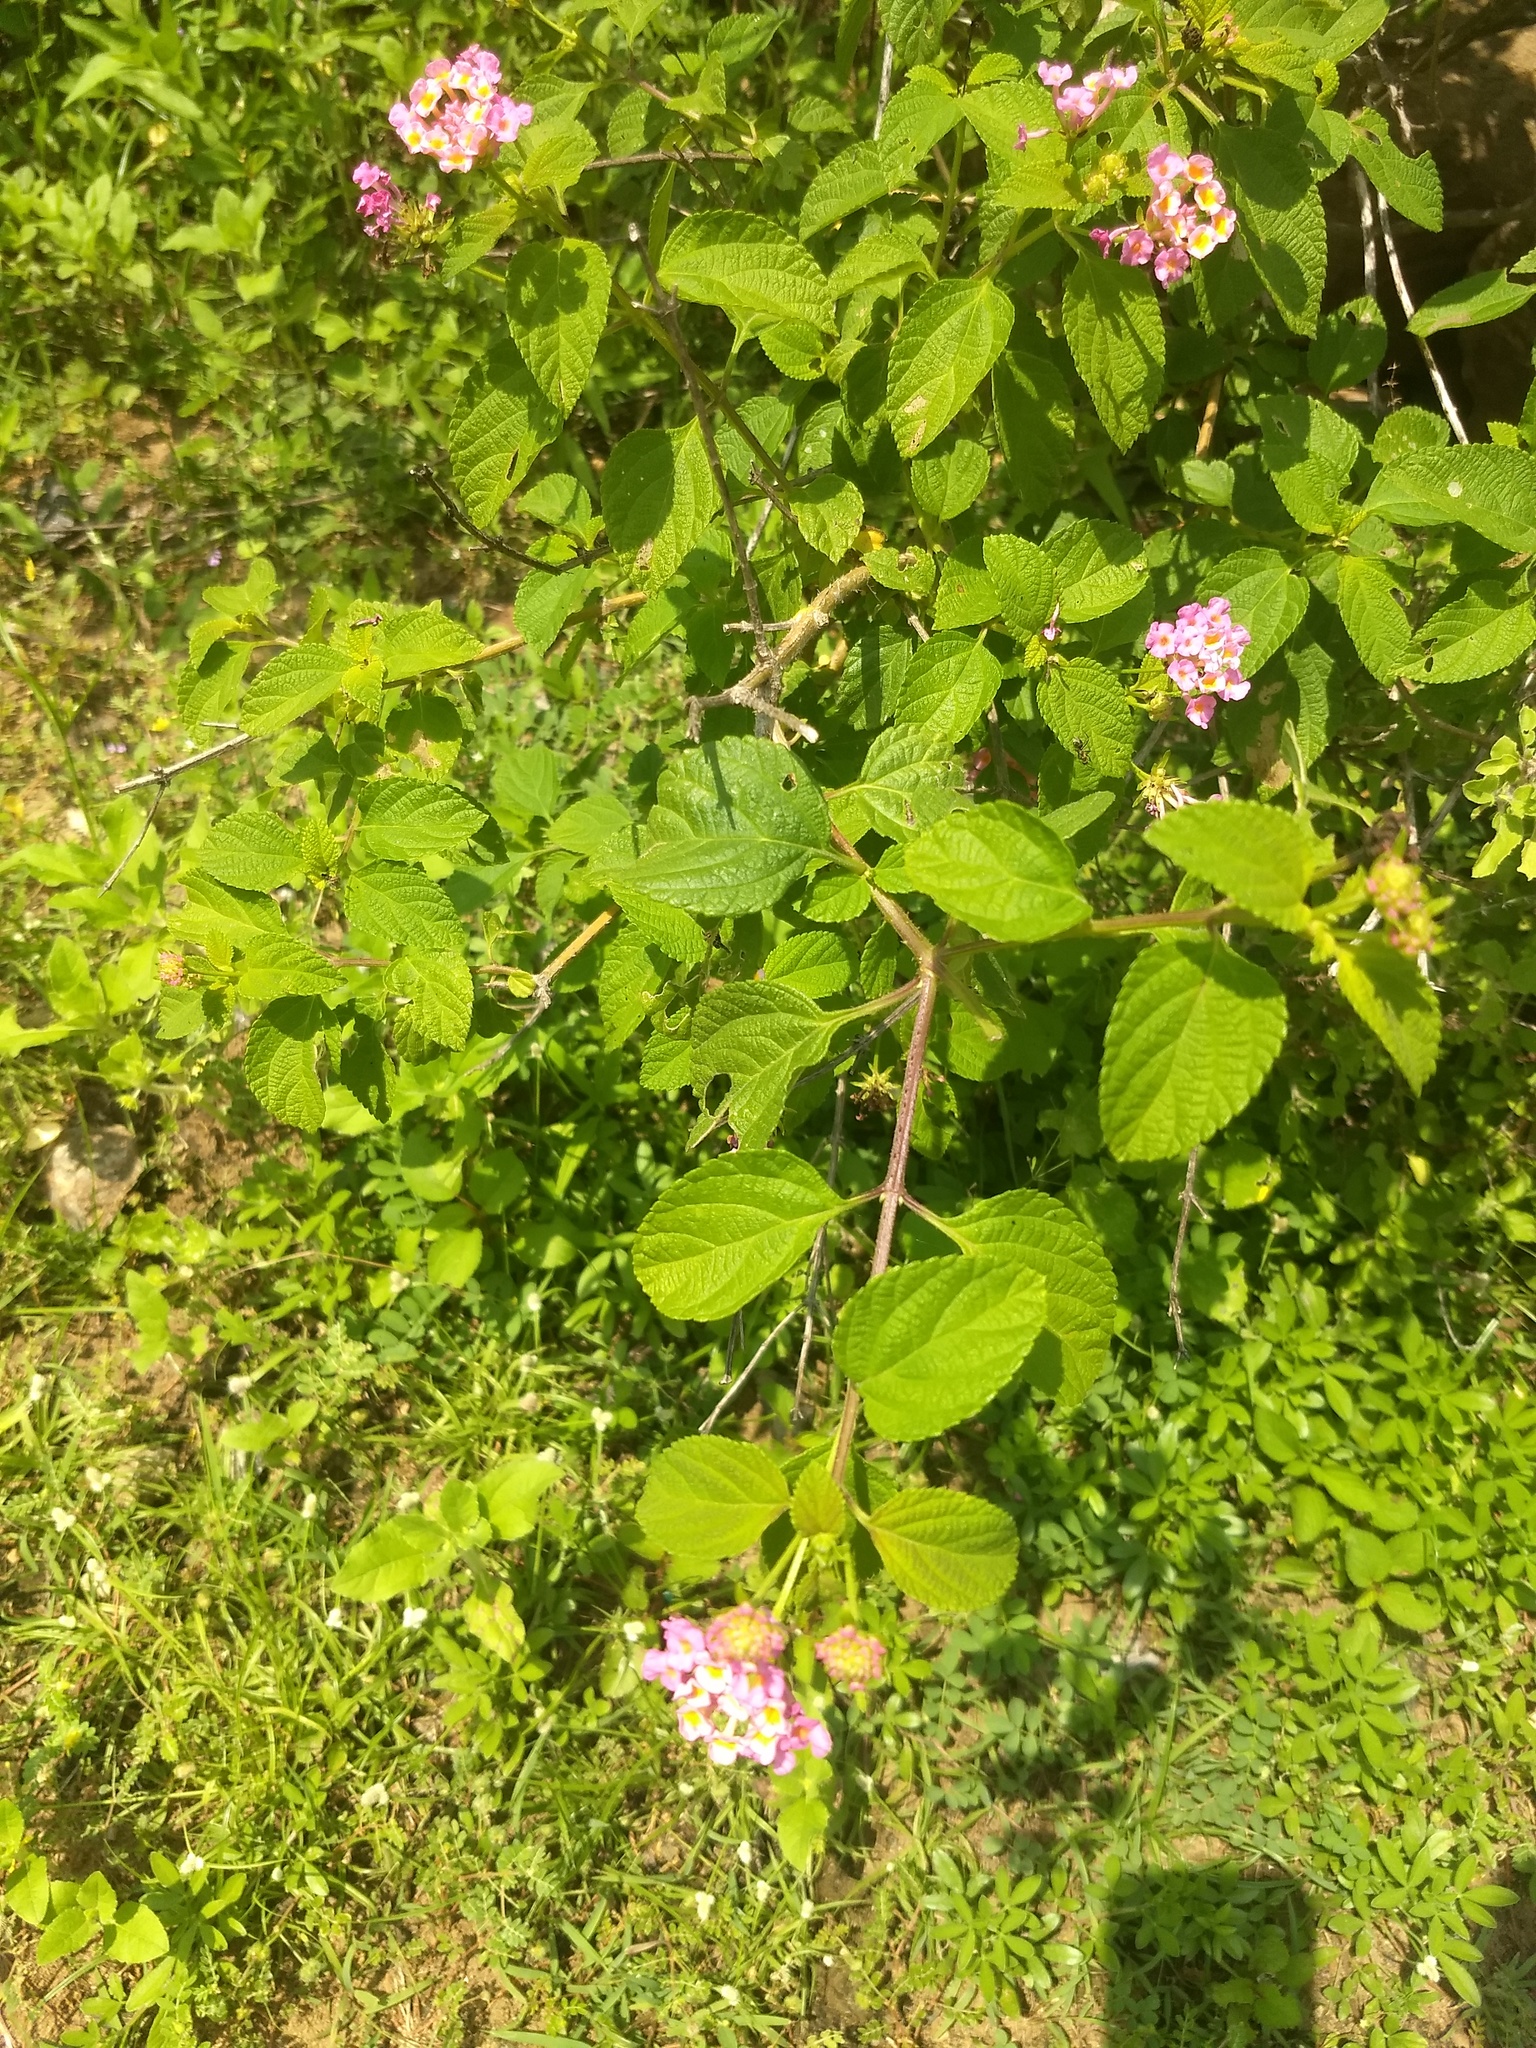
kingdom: Plantae
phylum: Tracheophyta
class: Magnoliopsida
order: Lamiales
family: Verbenaceae
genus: Lantana
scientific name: Lantana camara
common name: Lantana
